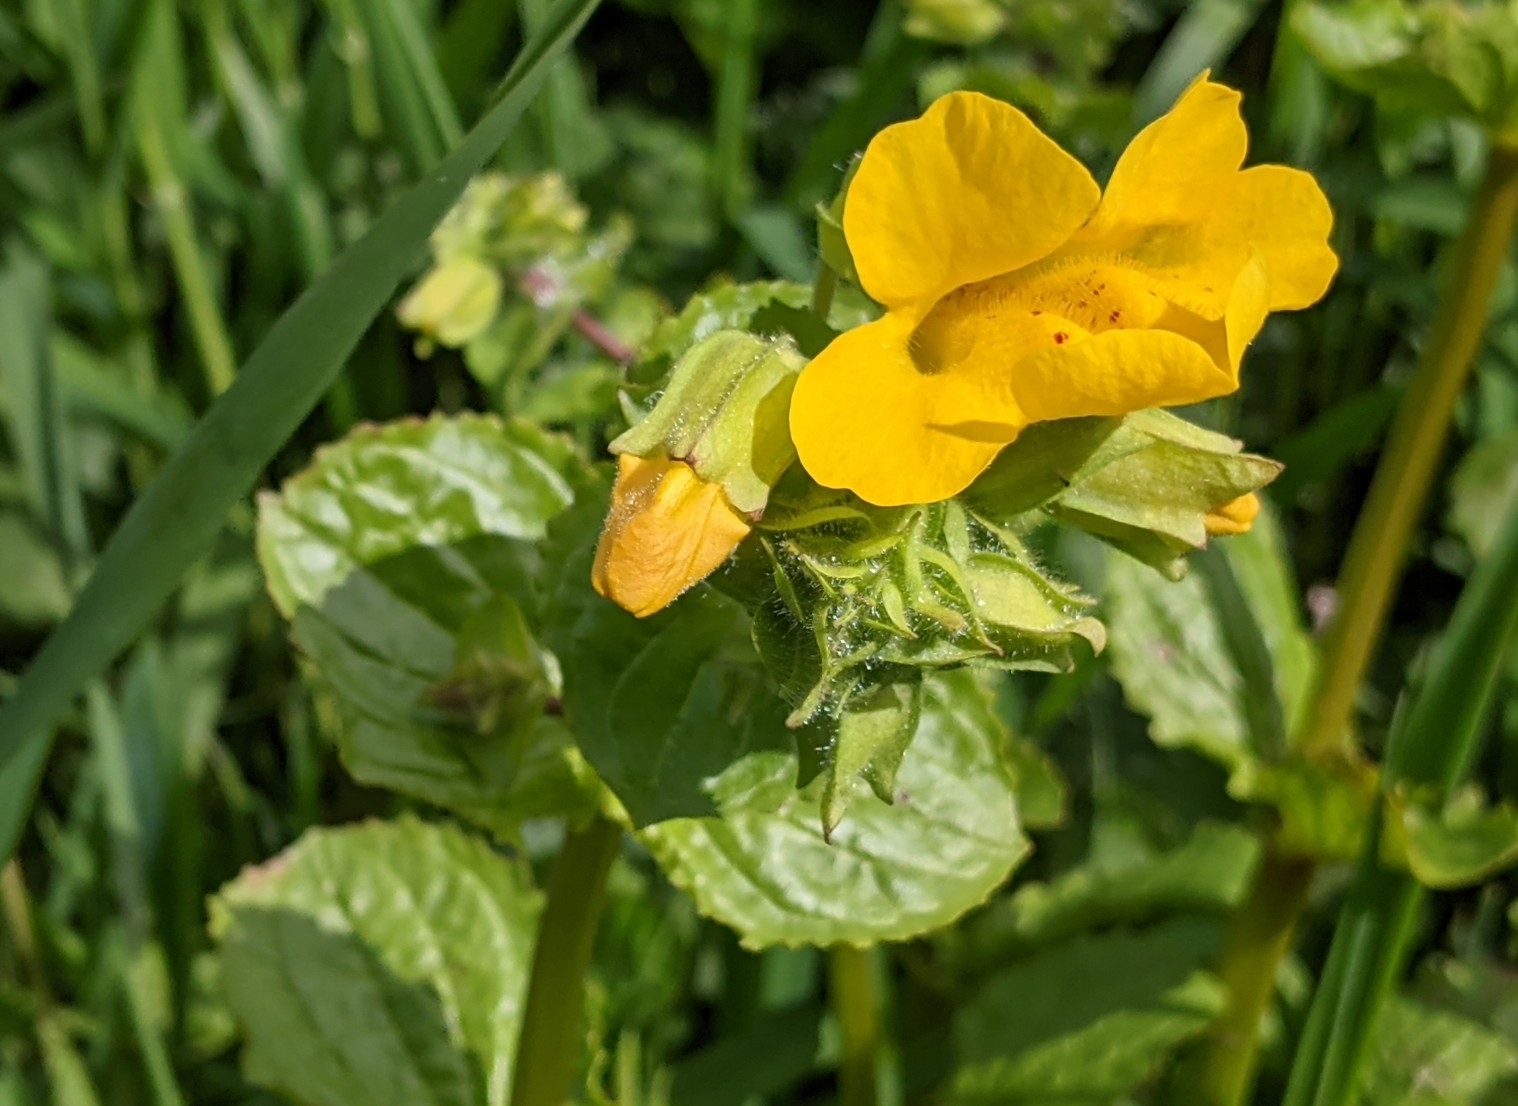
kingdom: Plantae
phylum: Tracheophyta
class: Magnoliopsida
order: Lamiales
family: Phrymaceae
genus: Erythranthe
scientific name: Erythranthe guttata
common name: Monkeyflower
